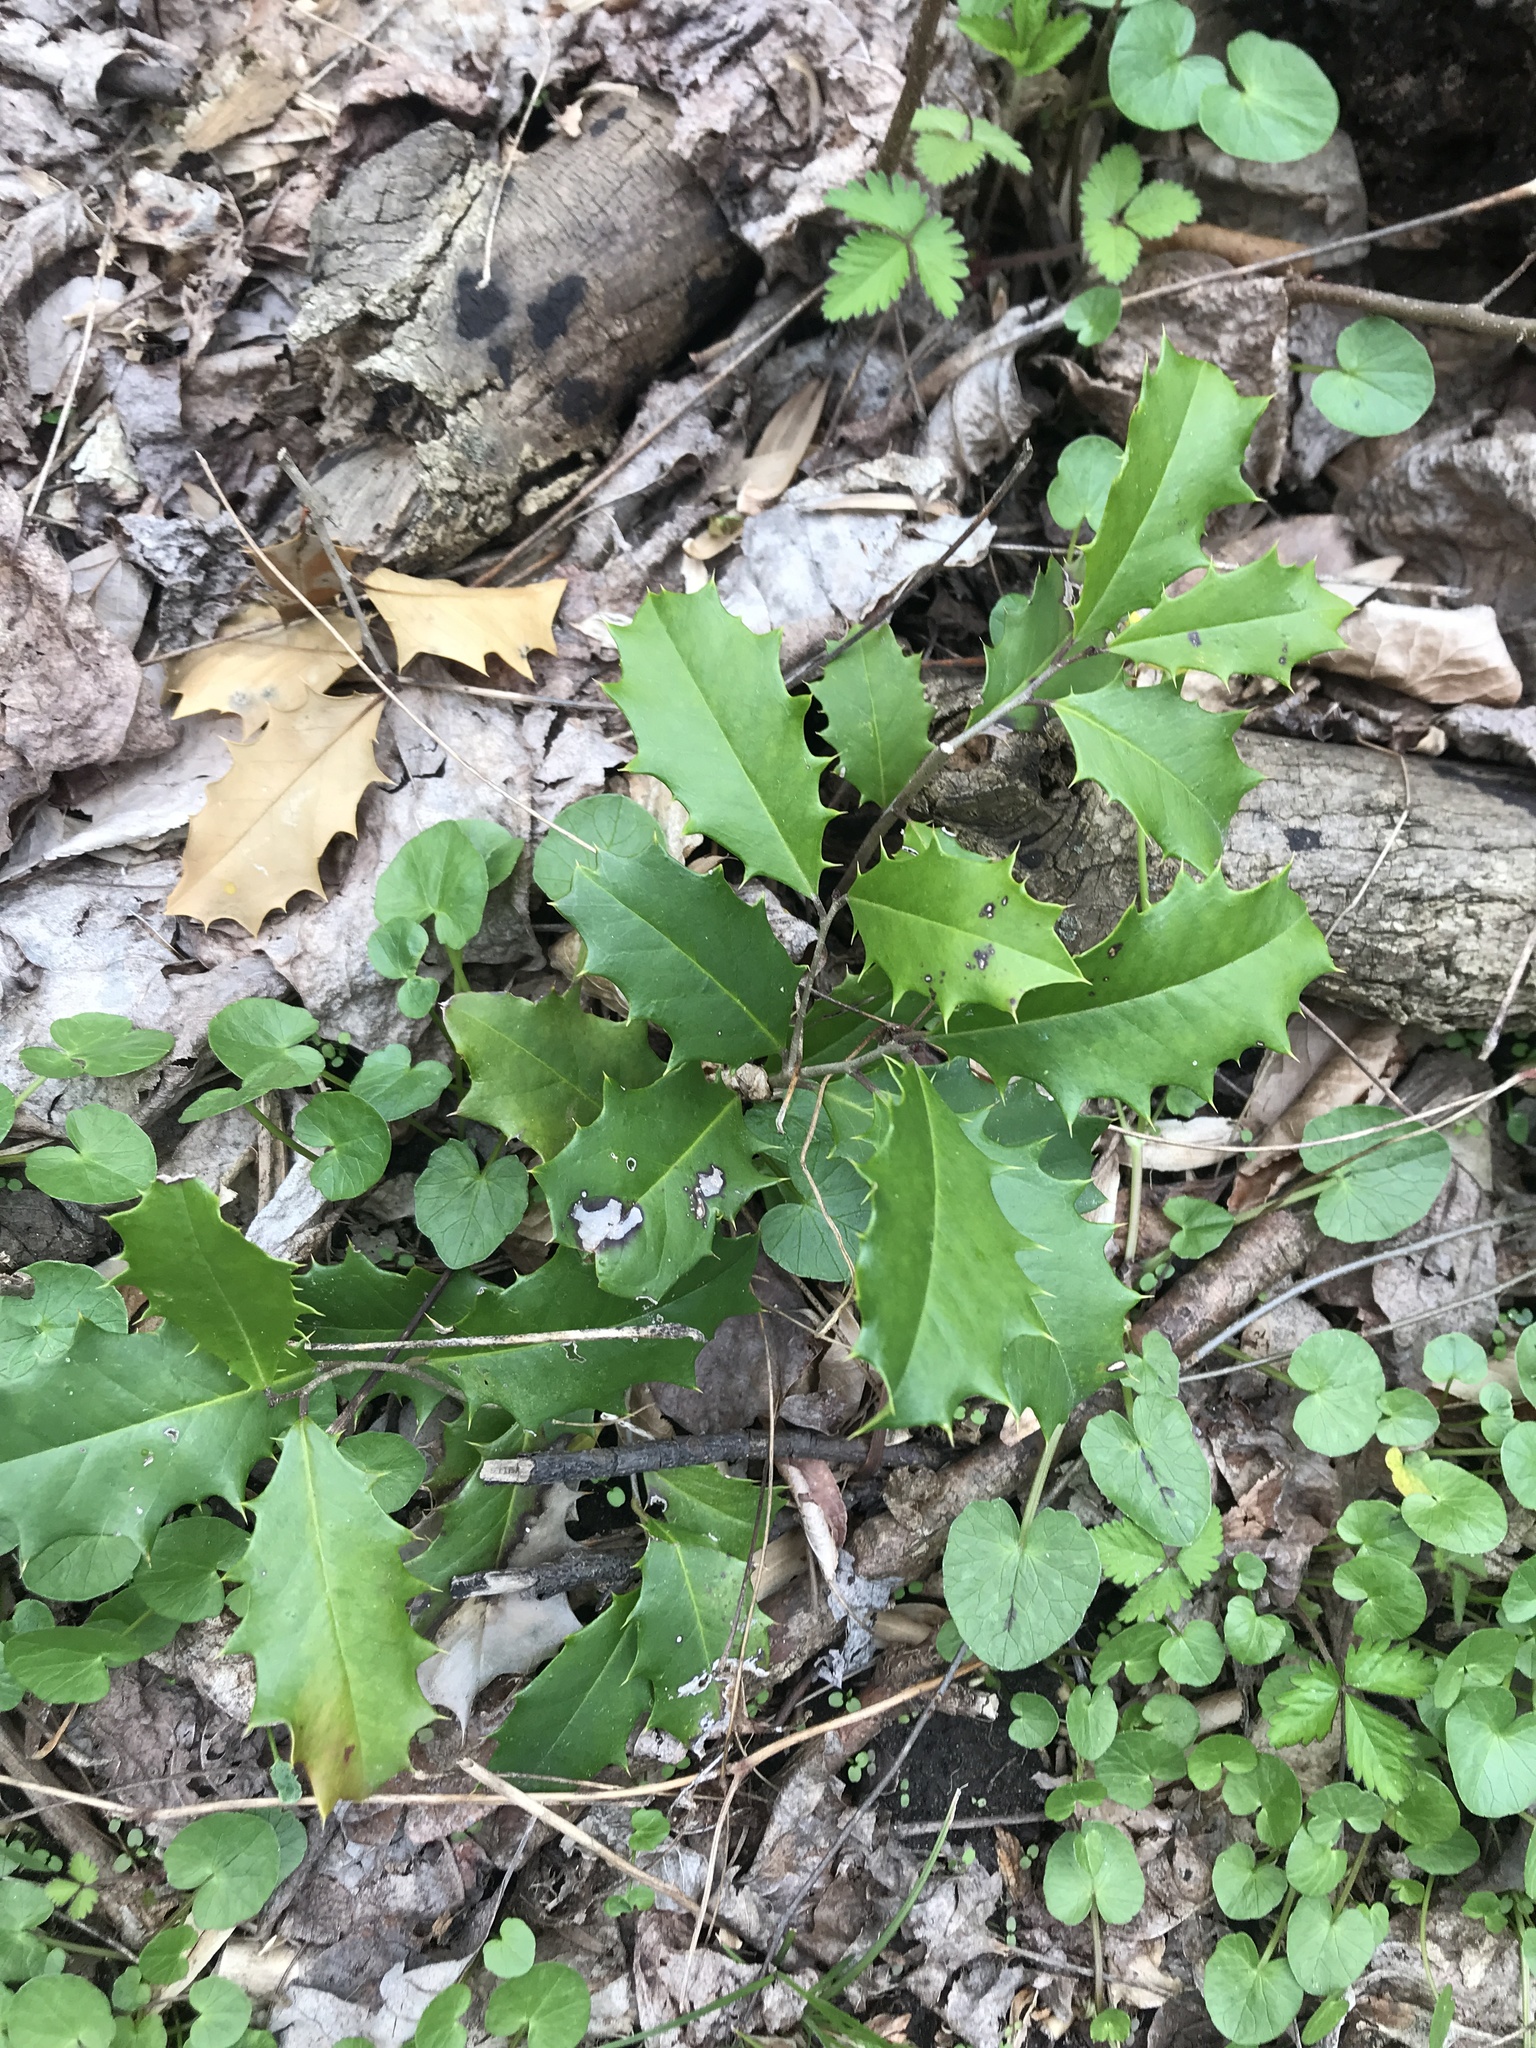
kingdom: Plantae
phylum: Tracheophyta
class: Magnoliopsida
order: Aquifoliales
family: Aquifoliaceae
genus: Ilex
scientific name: Ilex opaca
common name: American holly
